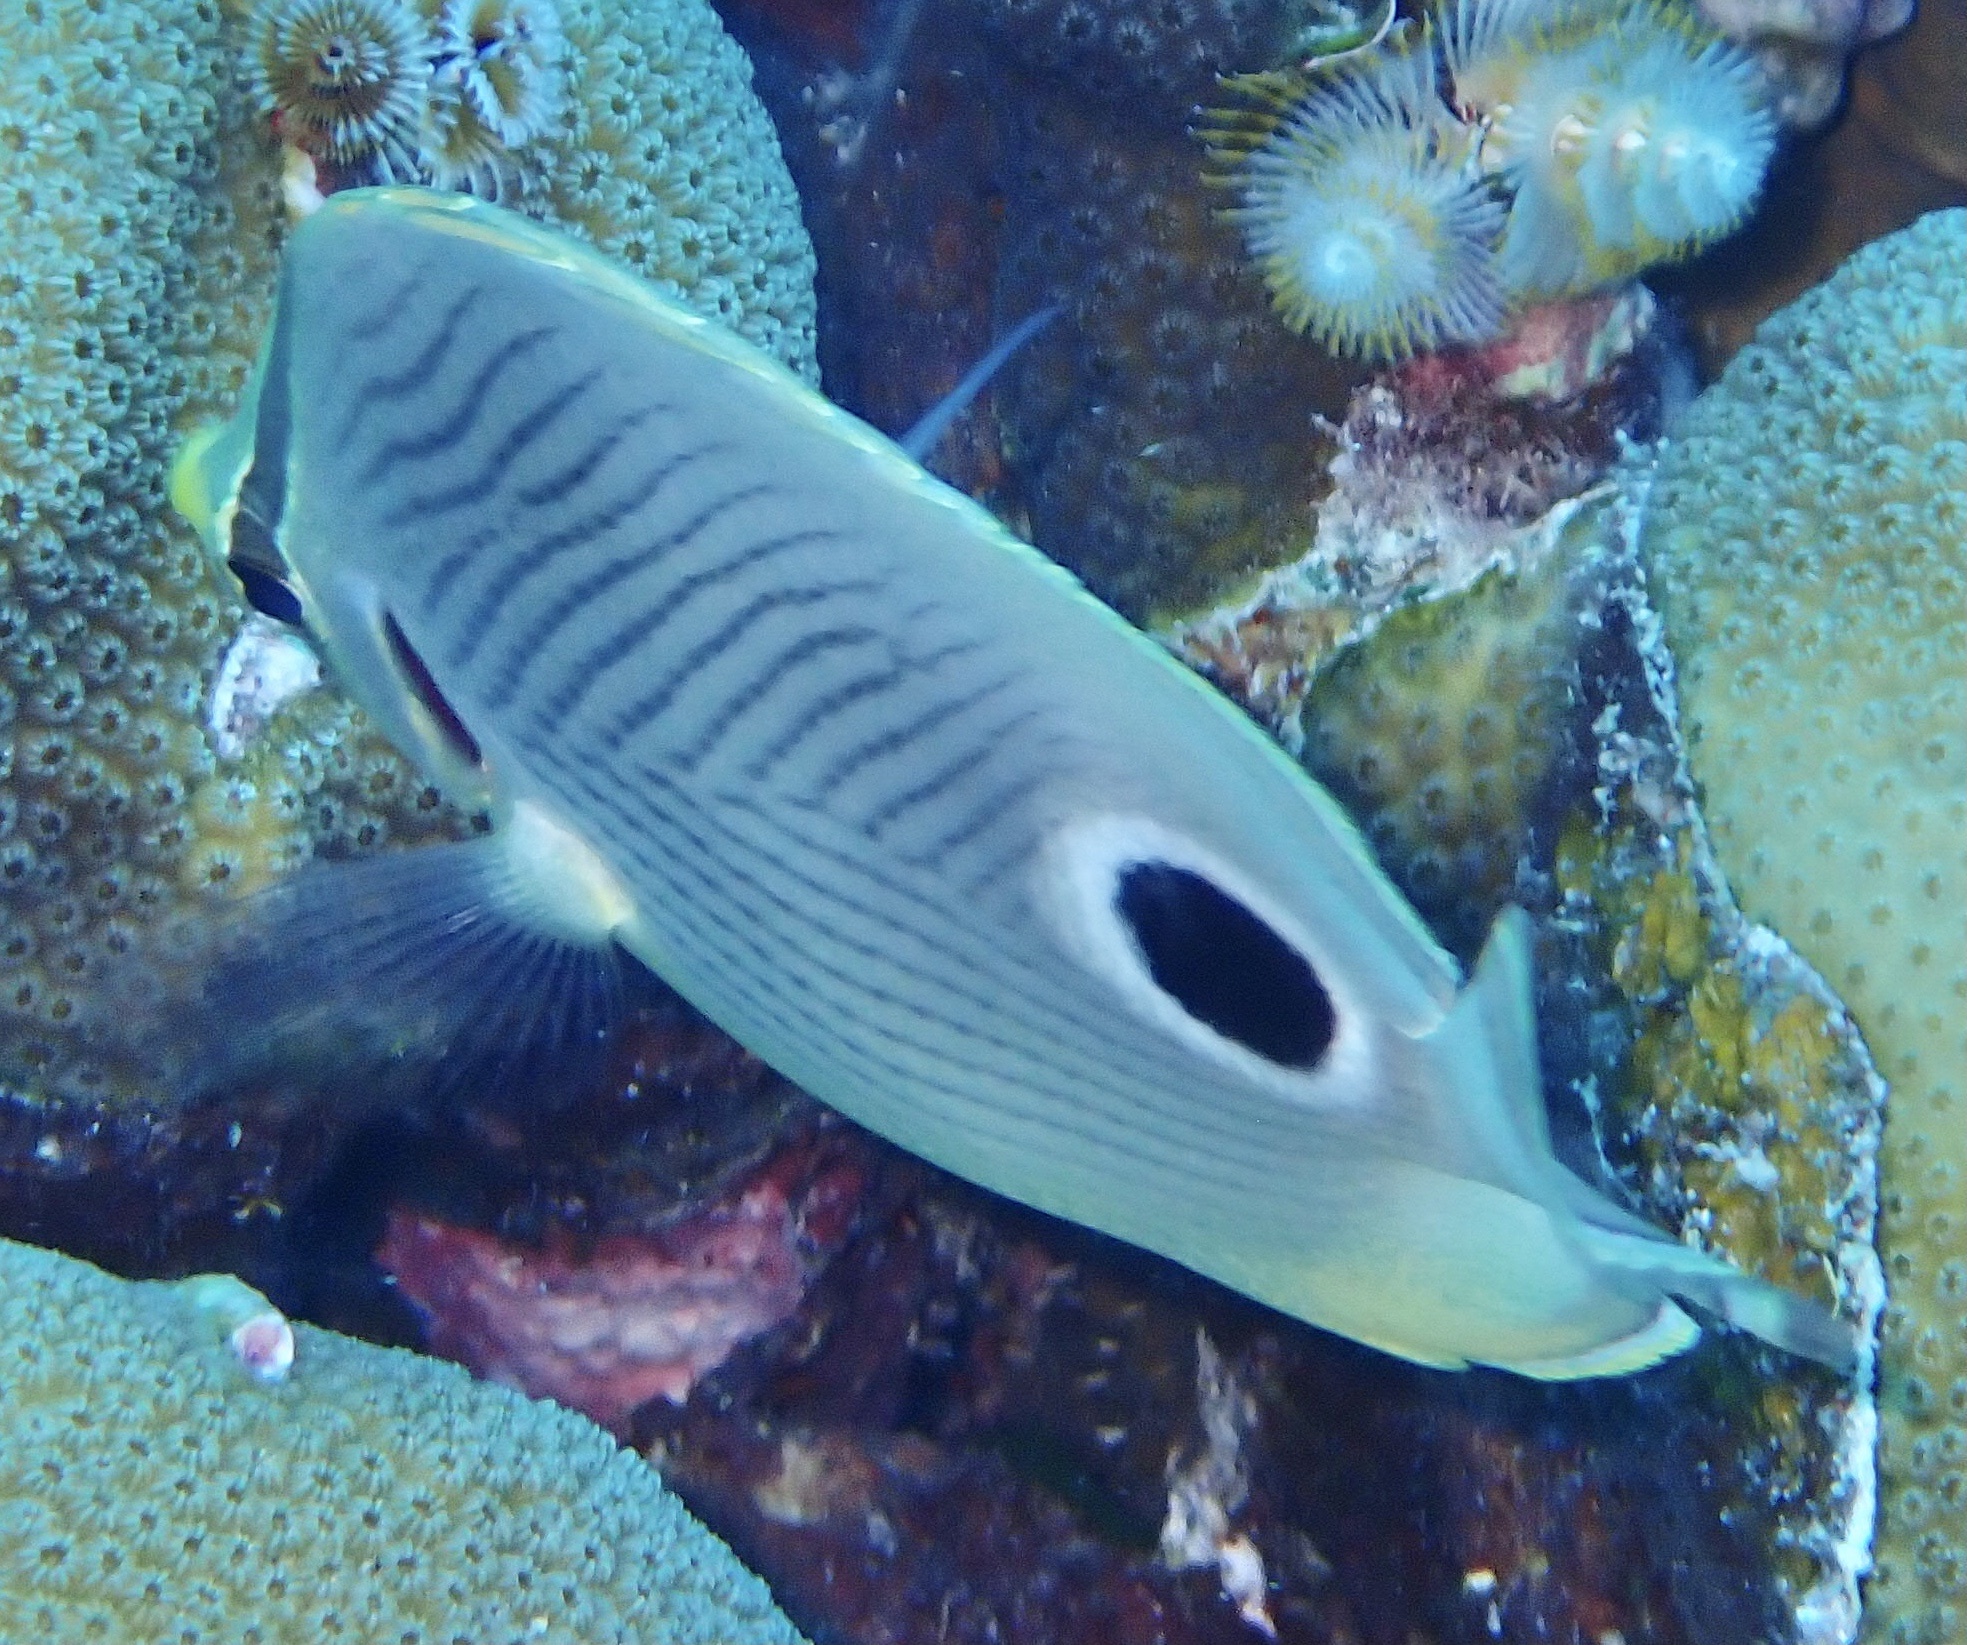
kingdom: Animalia
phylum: Chordata
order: Perciformes
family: Chaetodontidae
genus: Chaetodon
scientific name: Chaetodon capistratus
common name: Kete
